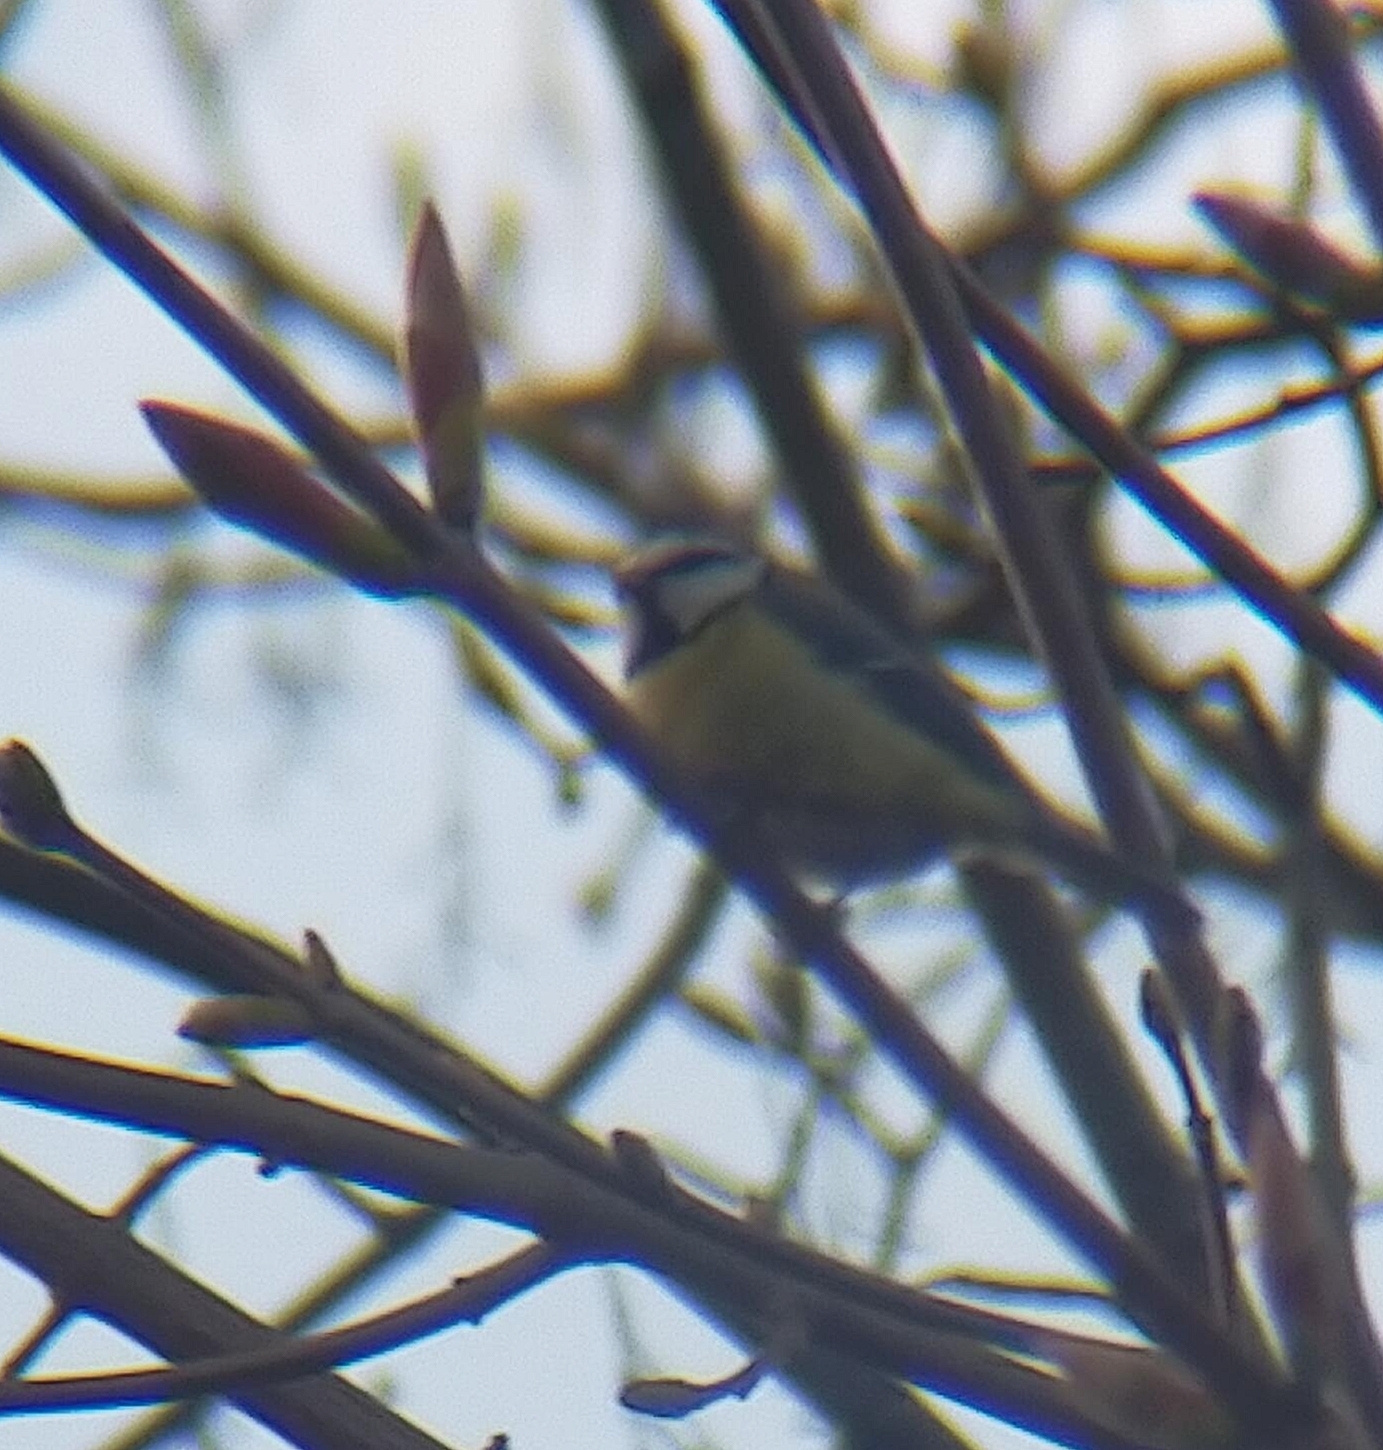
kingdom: Animalia
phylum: Chordata
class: Aves
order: Passeriformes
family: Paridae
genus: Cyanistes
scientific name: Cyanistes caeruleus
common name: Eurasian blue tit
